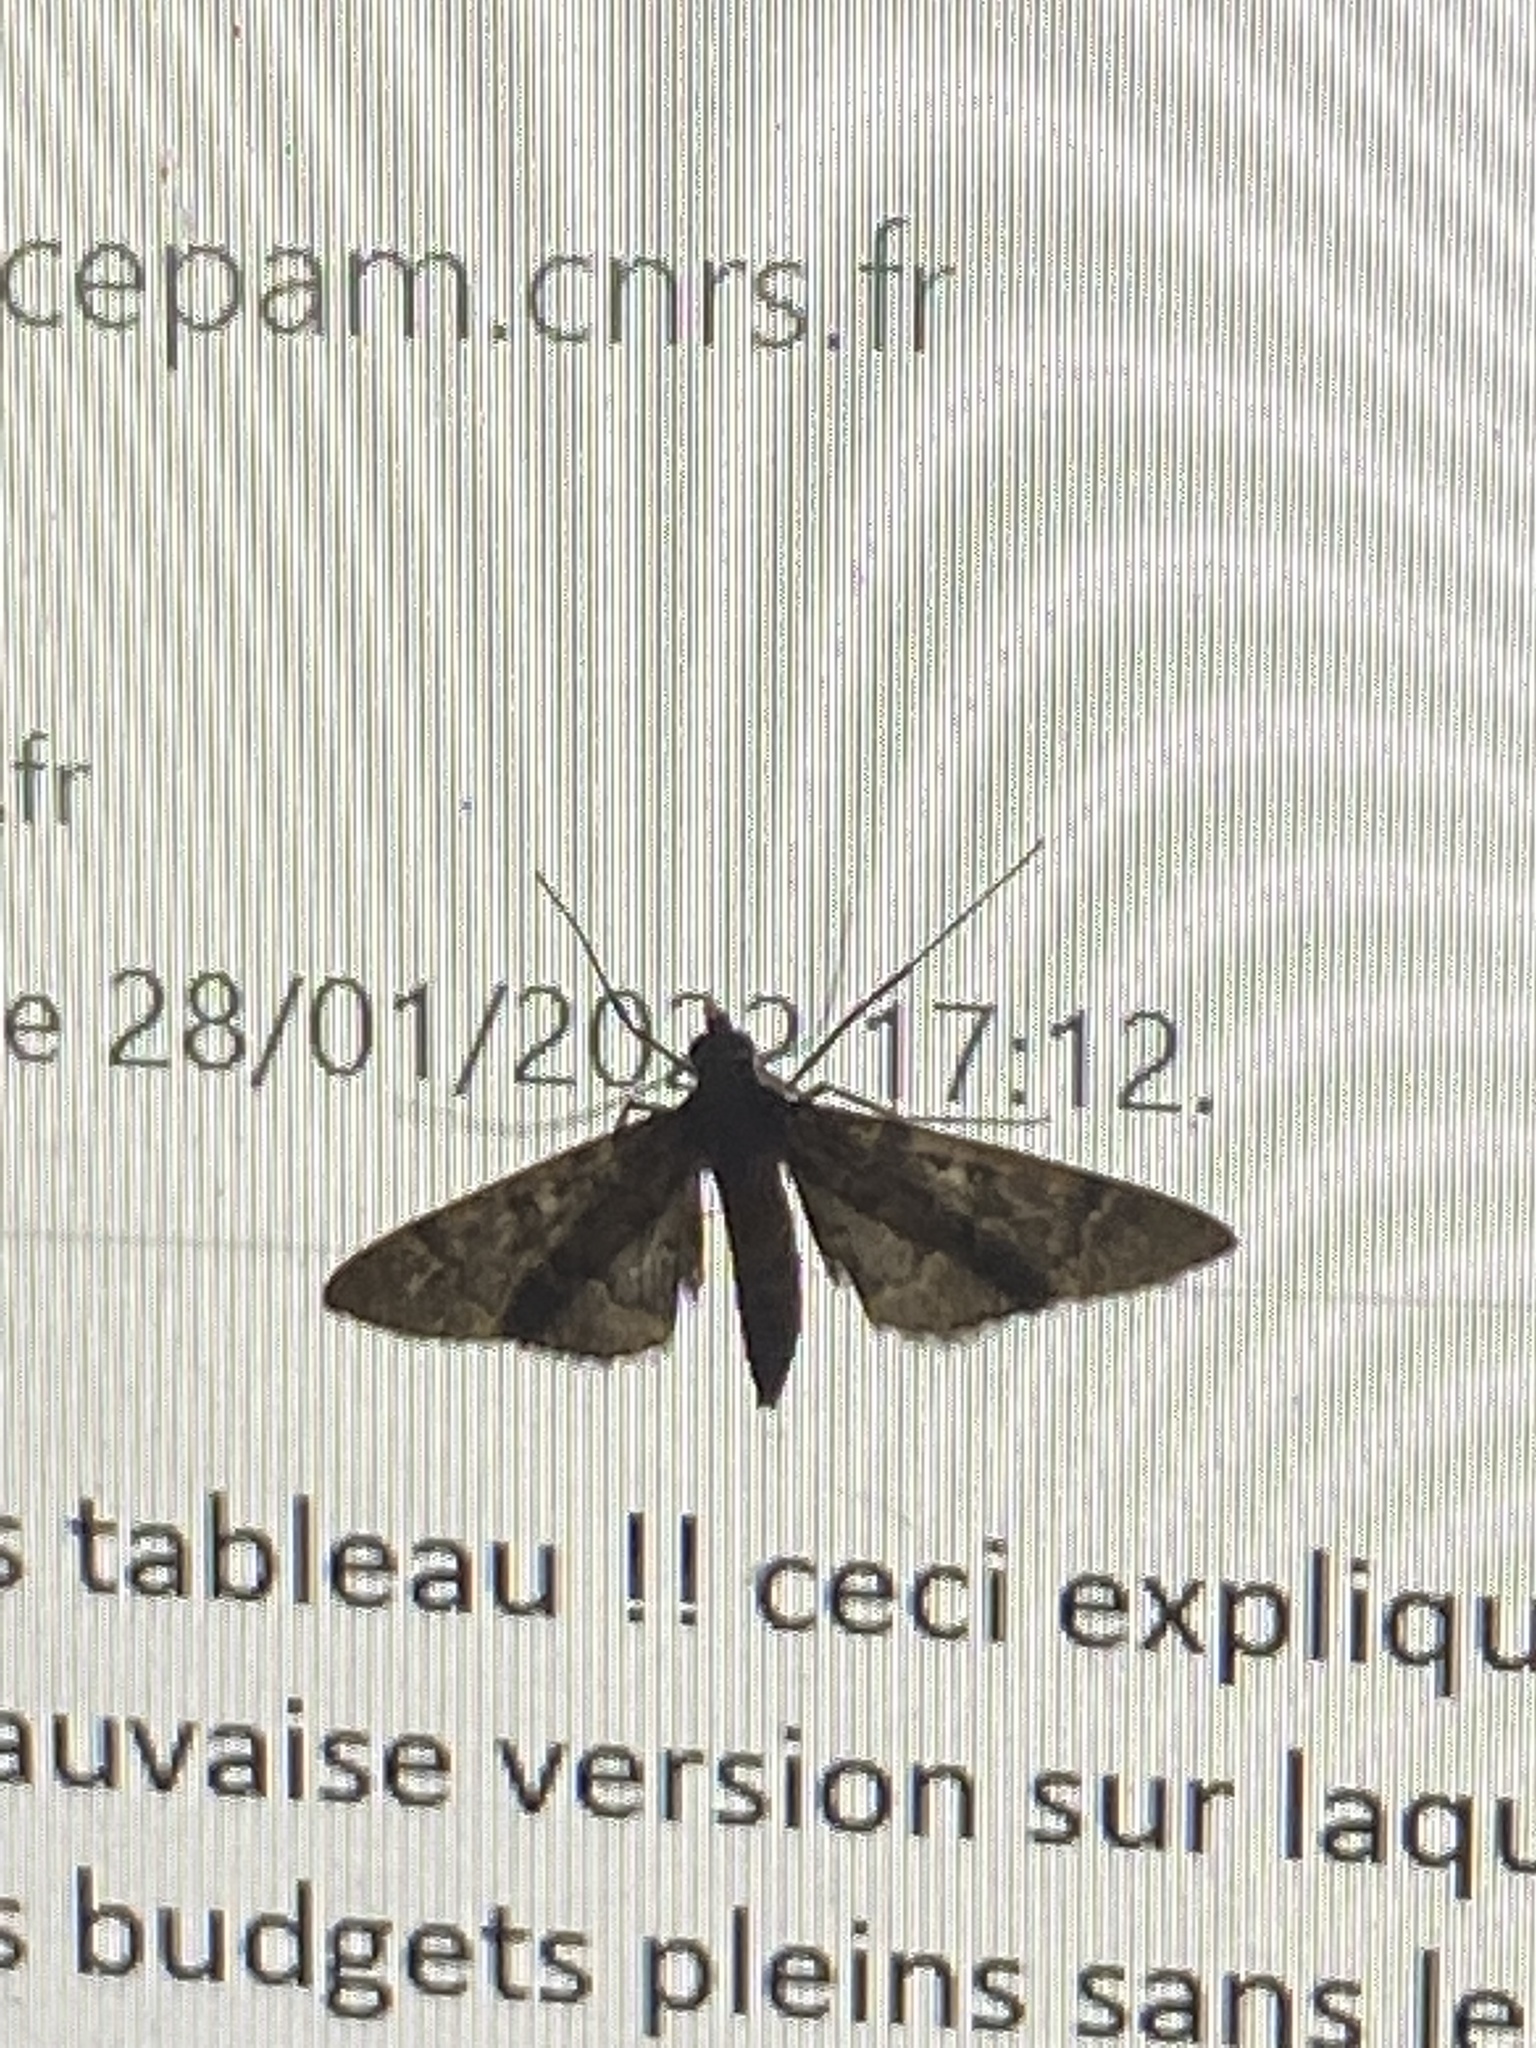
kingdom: Animalia
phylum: Arthropoda
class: Insecta
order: Lepidoptera
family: Crambidae
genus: Duponchelia
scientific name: Duponchelia lanceolalis
